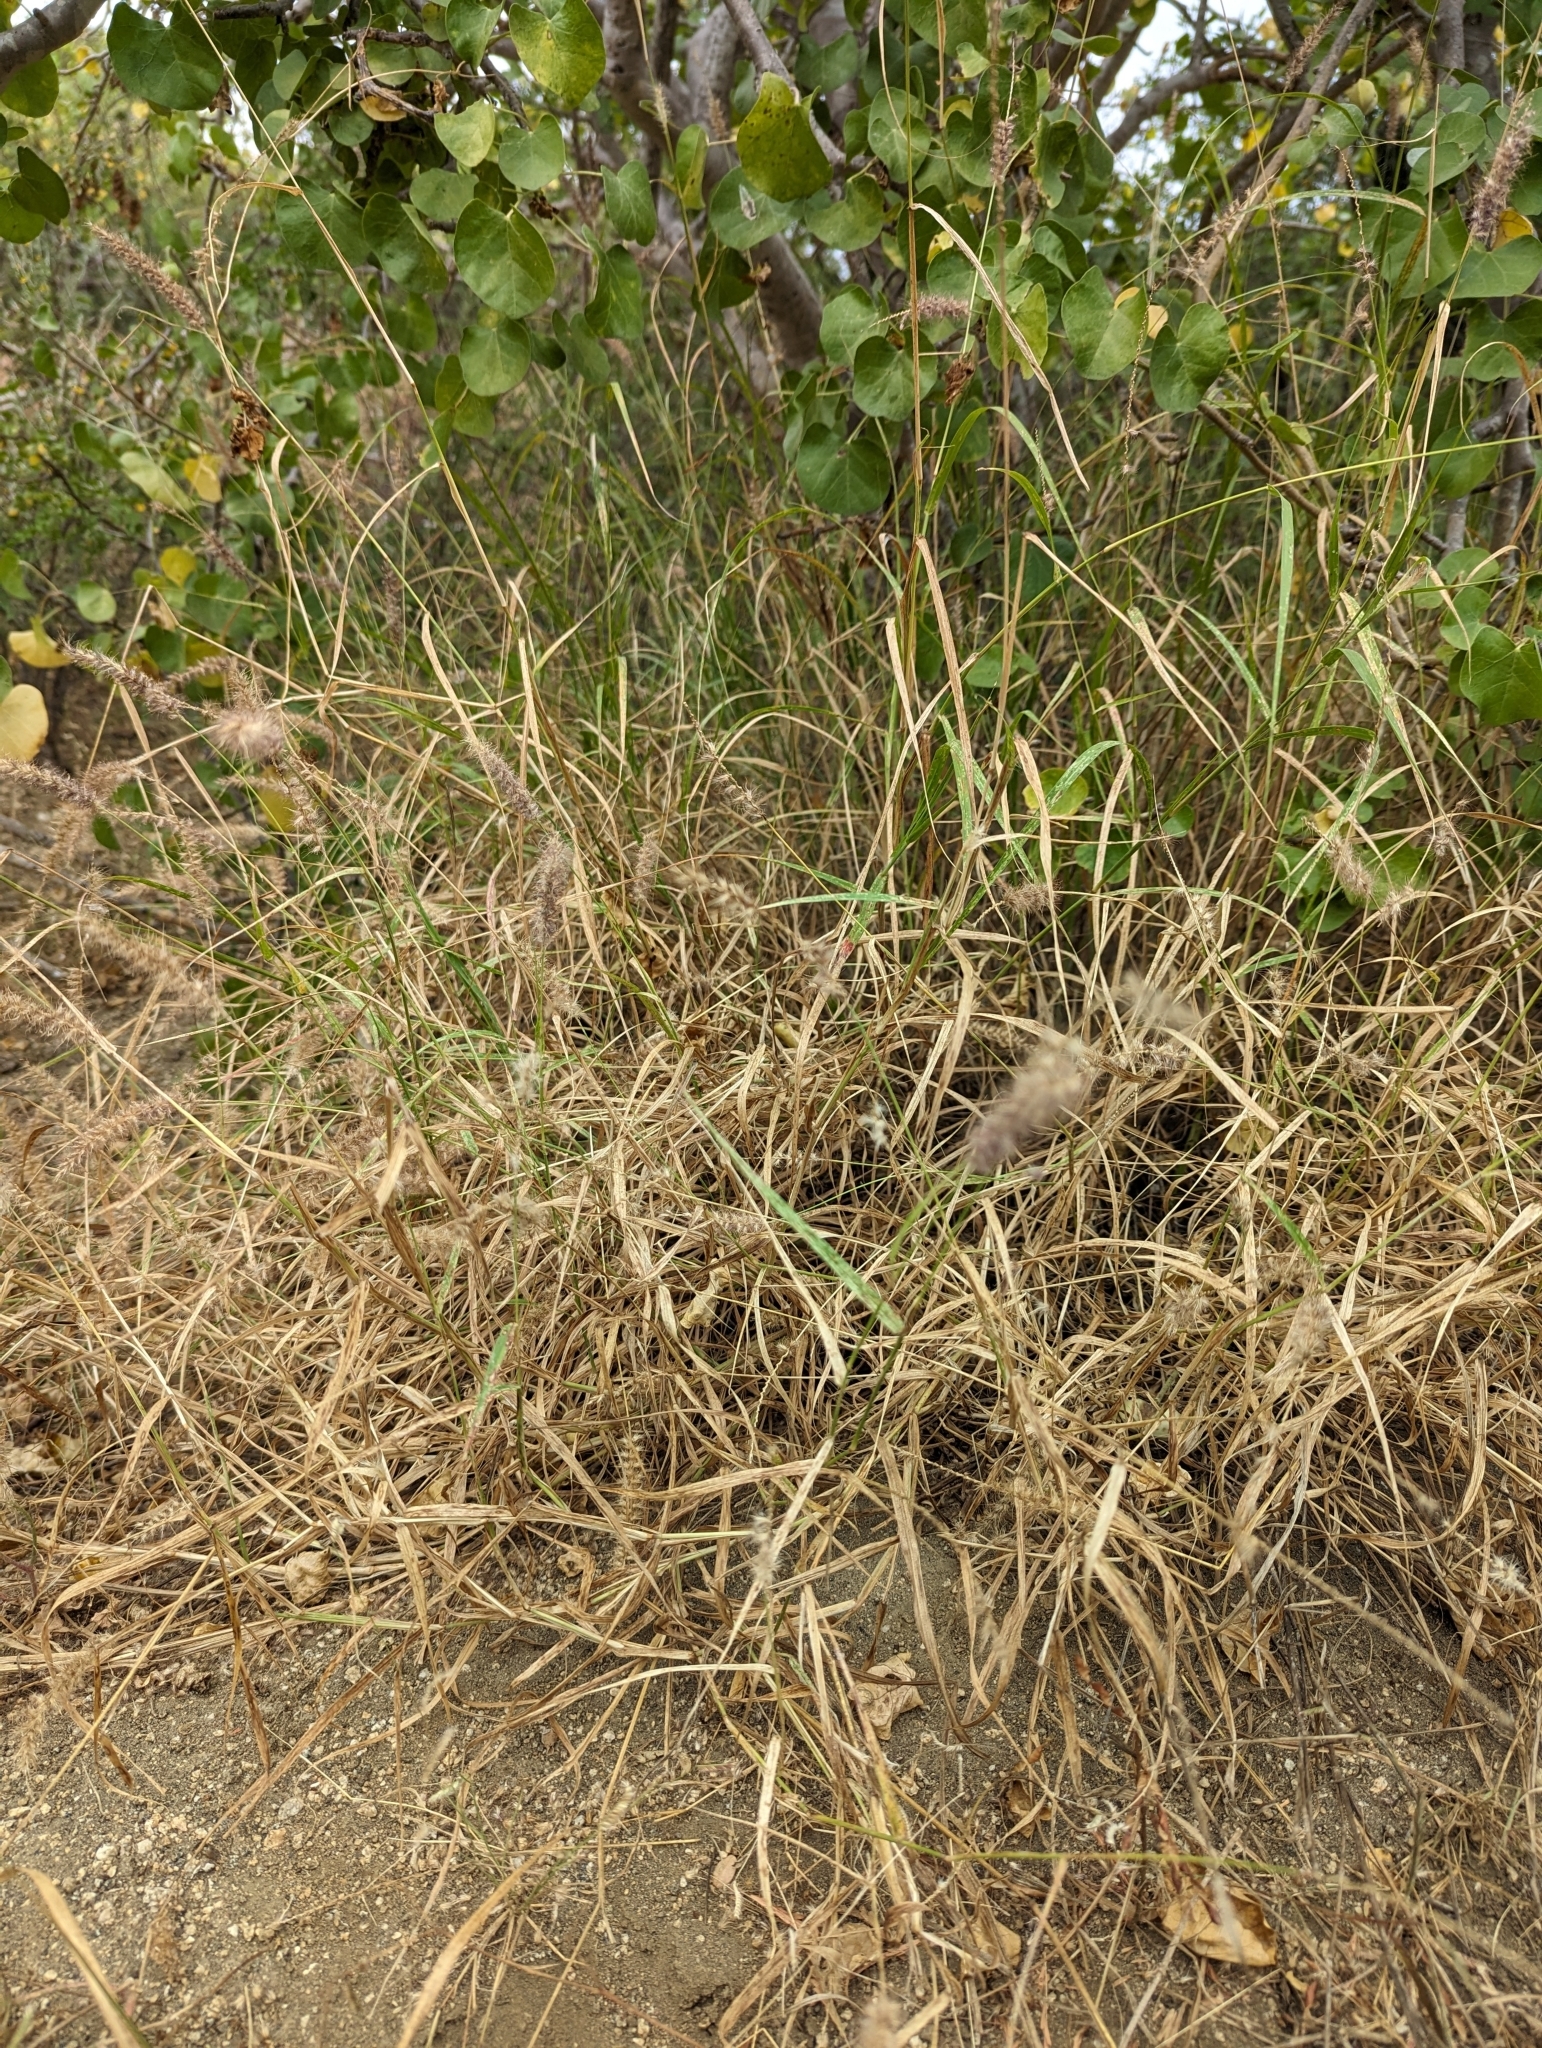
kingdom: Plantae
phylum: Tracheophyta
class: Liliopsida
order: Poales
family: Poaceae
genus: Cenchrus
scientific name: Cenchrus ciliaris
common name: Buffelgrass
